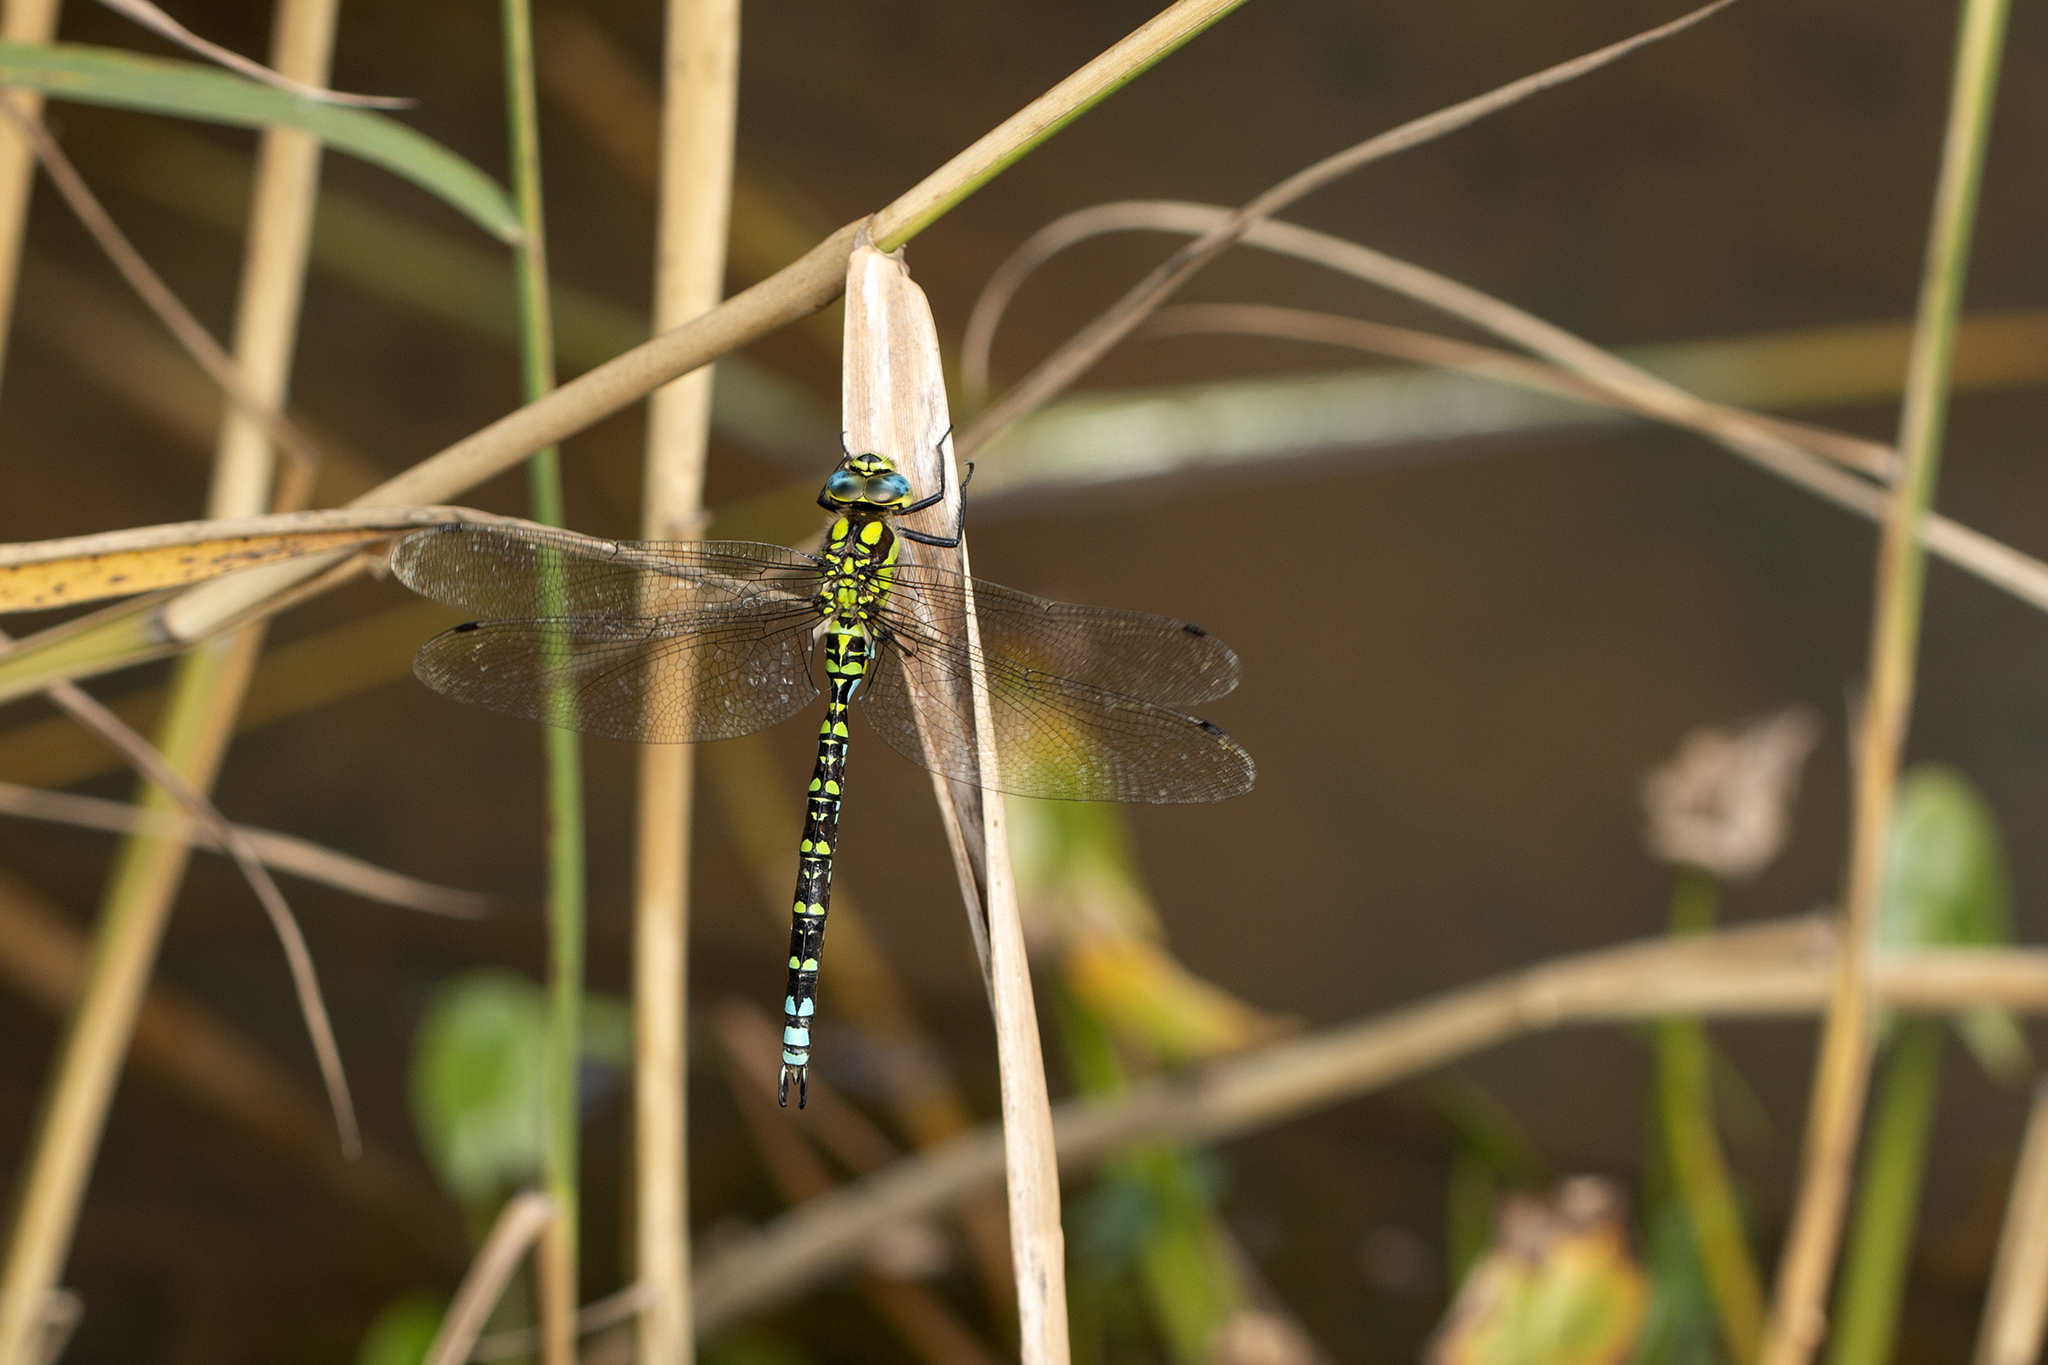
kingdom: Animalia
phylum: Arthropoda
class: Insecta
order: Odonata
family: Aeshnidae
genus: Aeshna
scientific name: Aeshna cyanea
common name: Southern hawker
